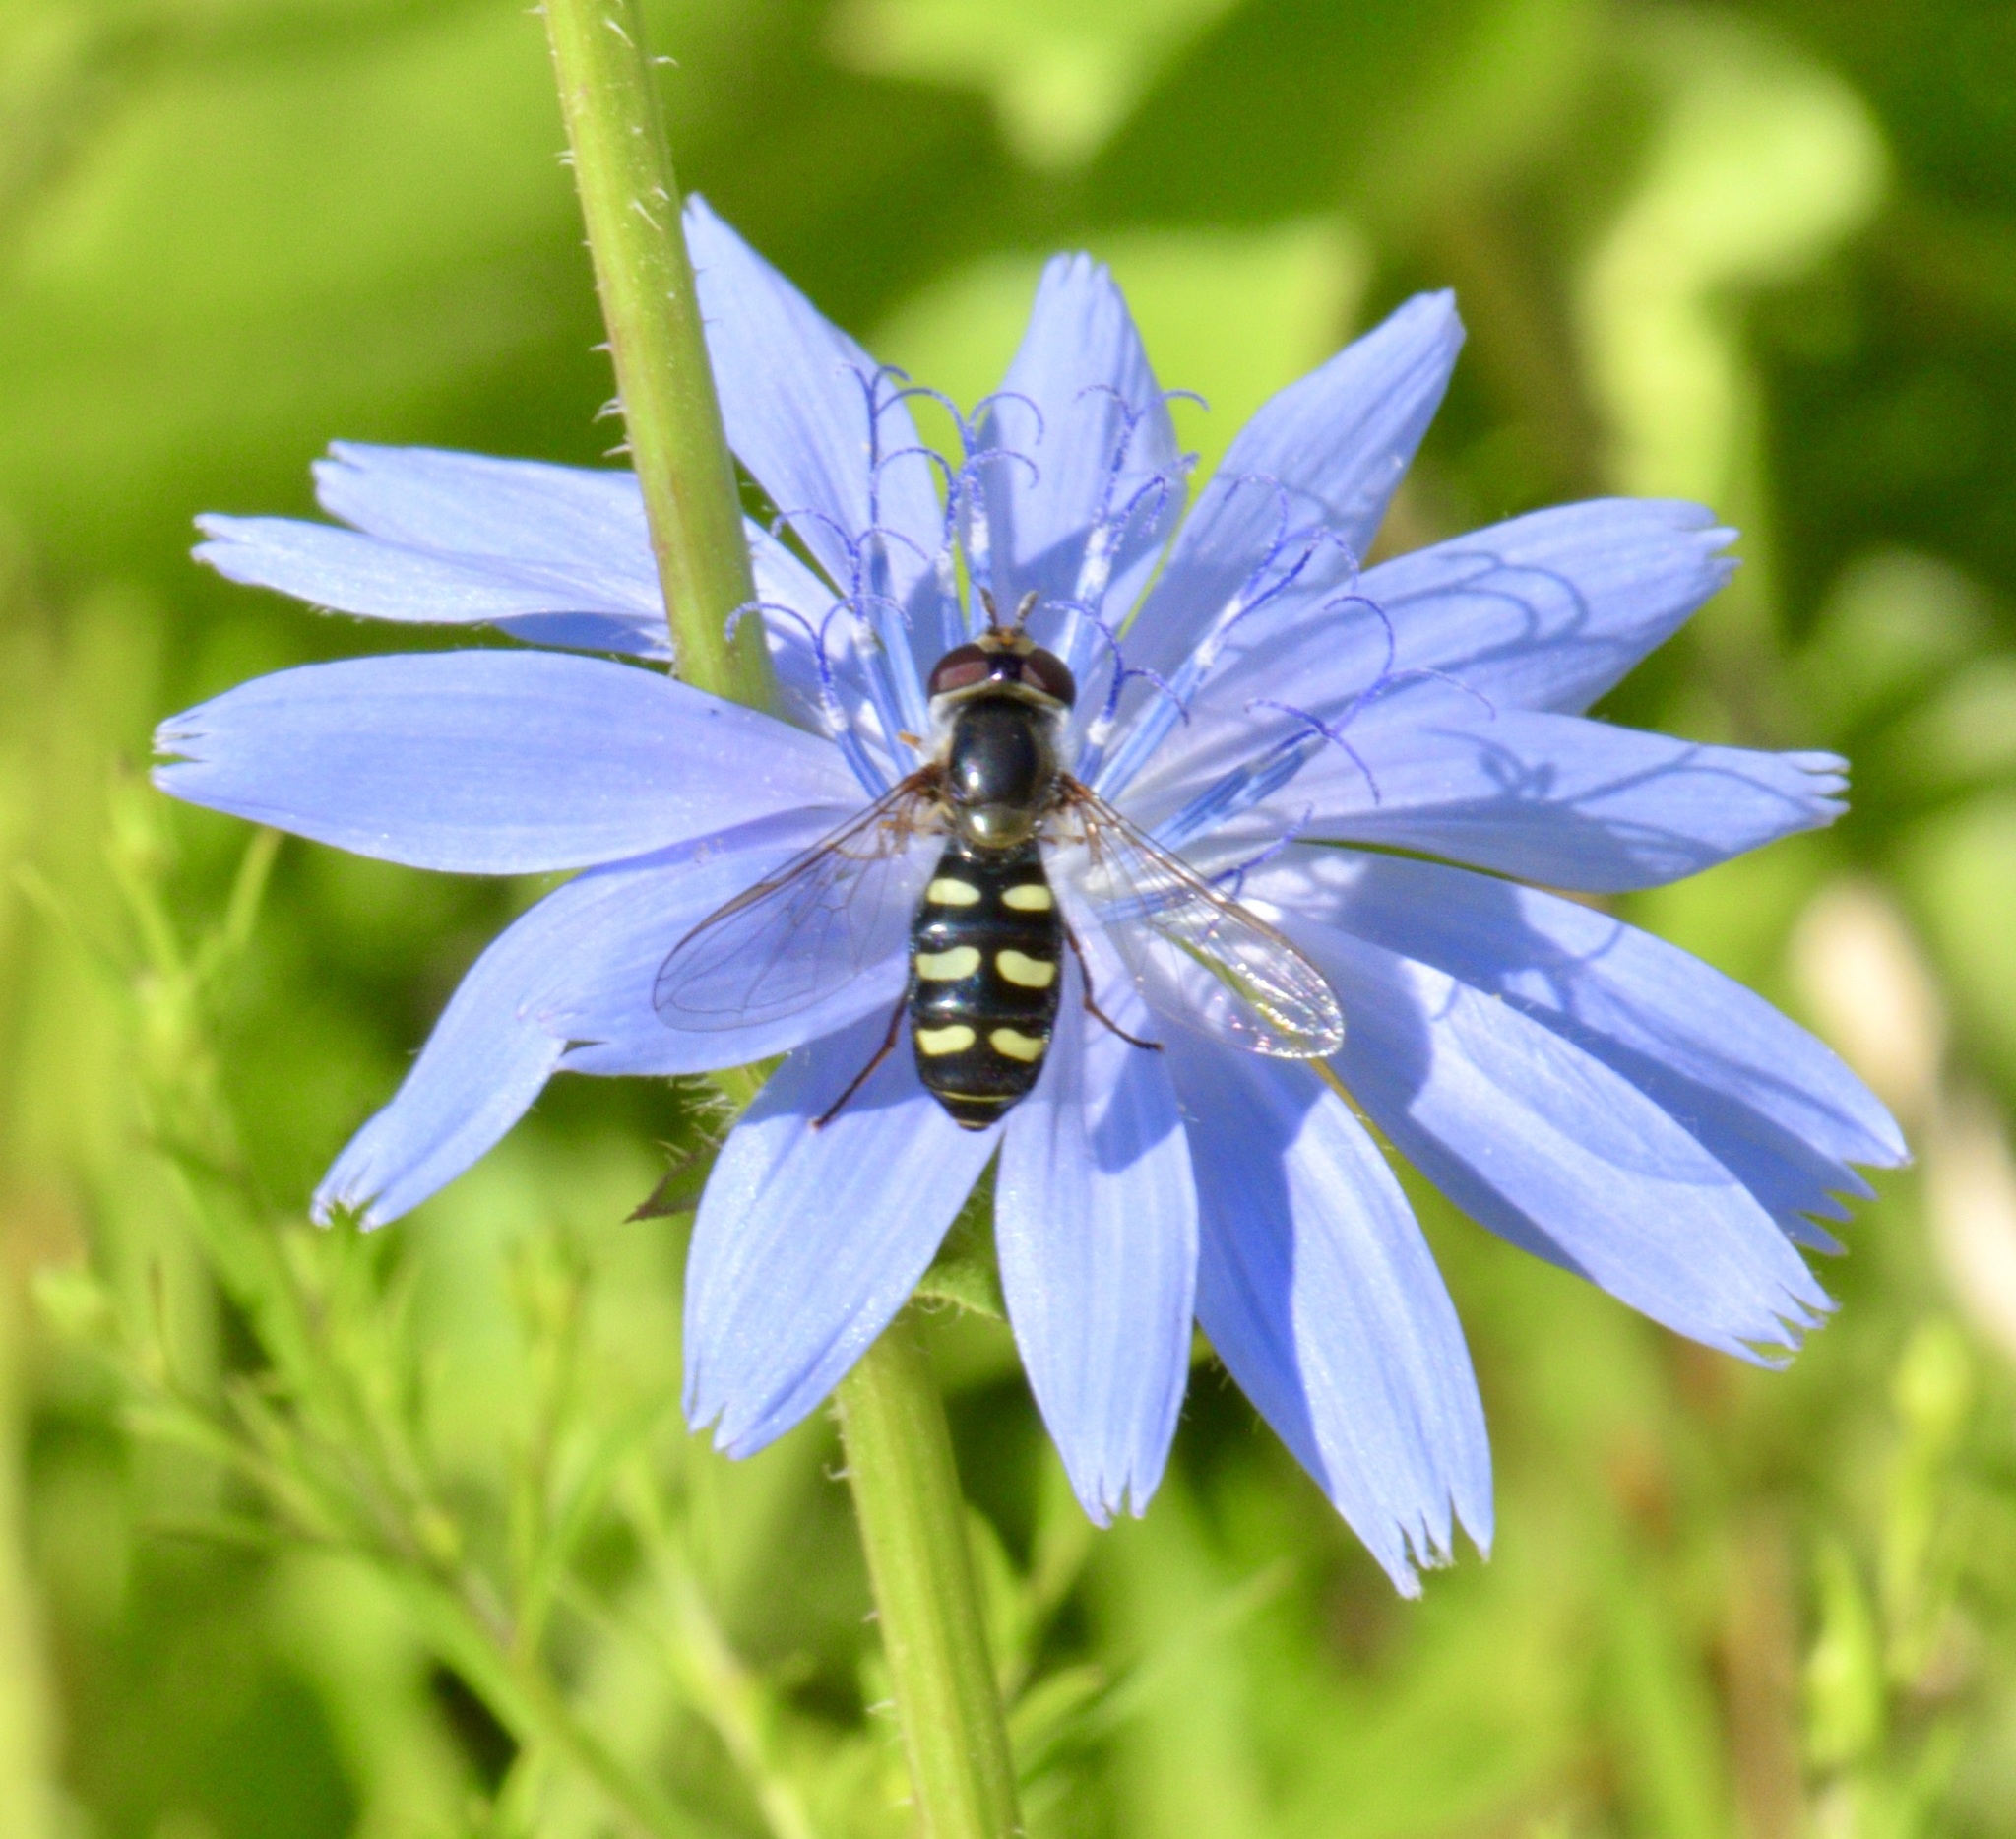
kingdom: Animalia
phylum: Arthropoda
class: Insecta
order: Diptera
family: Syrphidae
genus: Eupeodes
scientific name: Eupeodes perplexus
